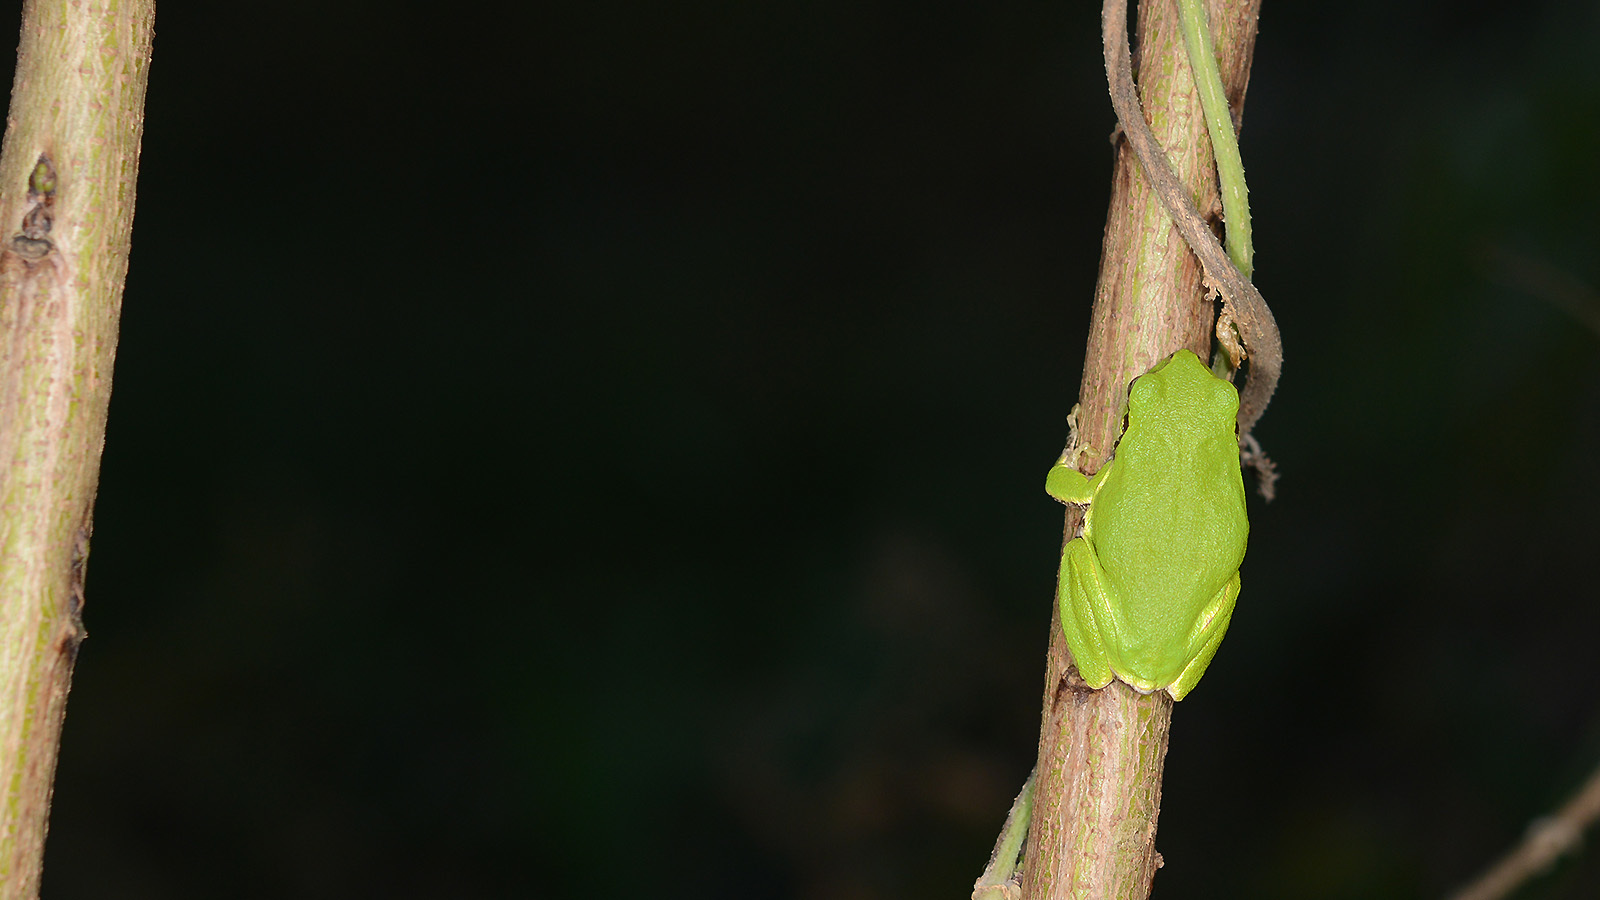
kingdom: Animalia
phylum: Chordata
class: Amphibia
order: Anura
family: Hylidae
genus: Dryophytes
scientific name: Dryophytes japonicus
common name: Japanese treefrog
